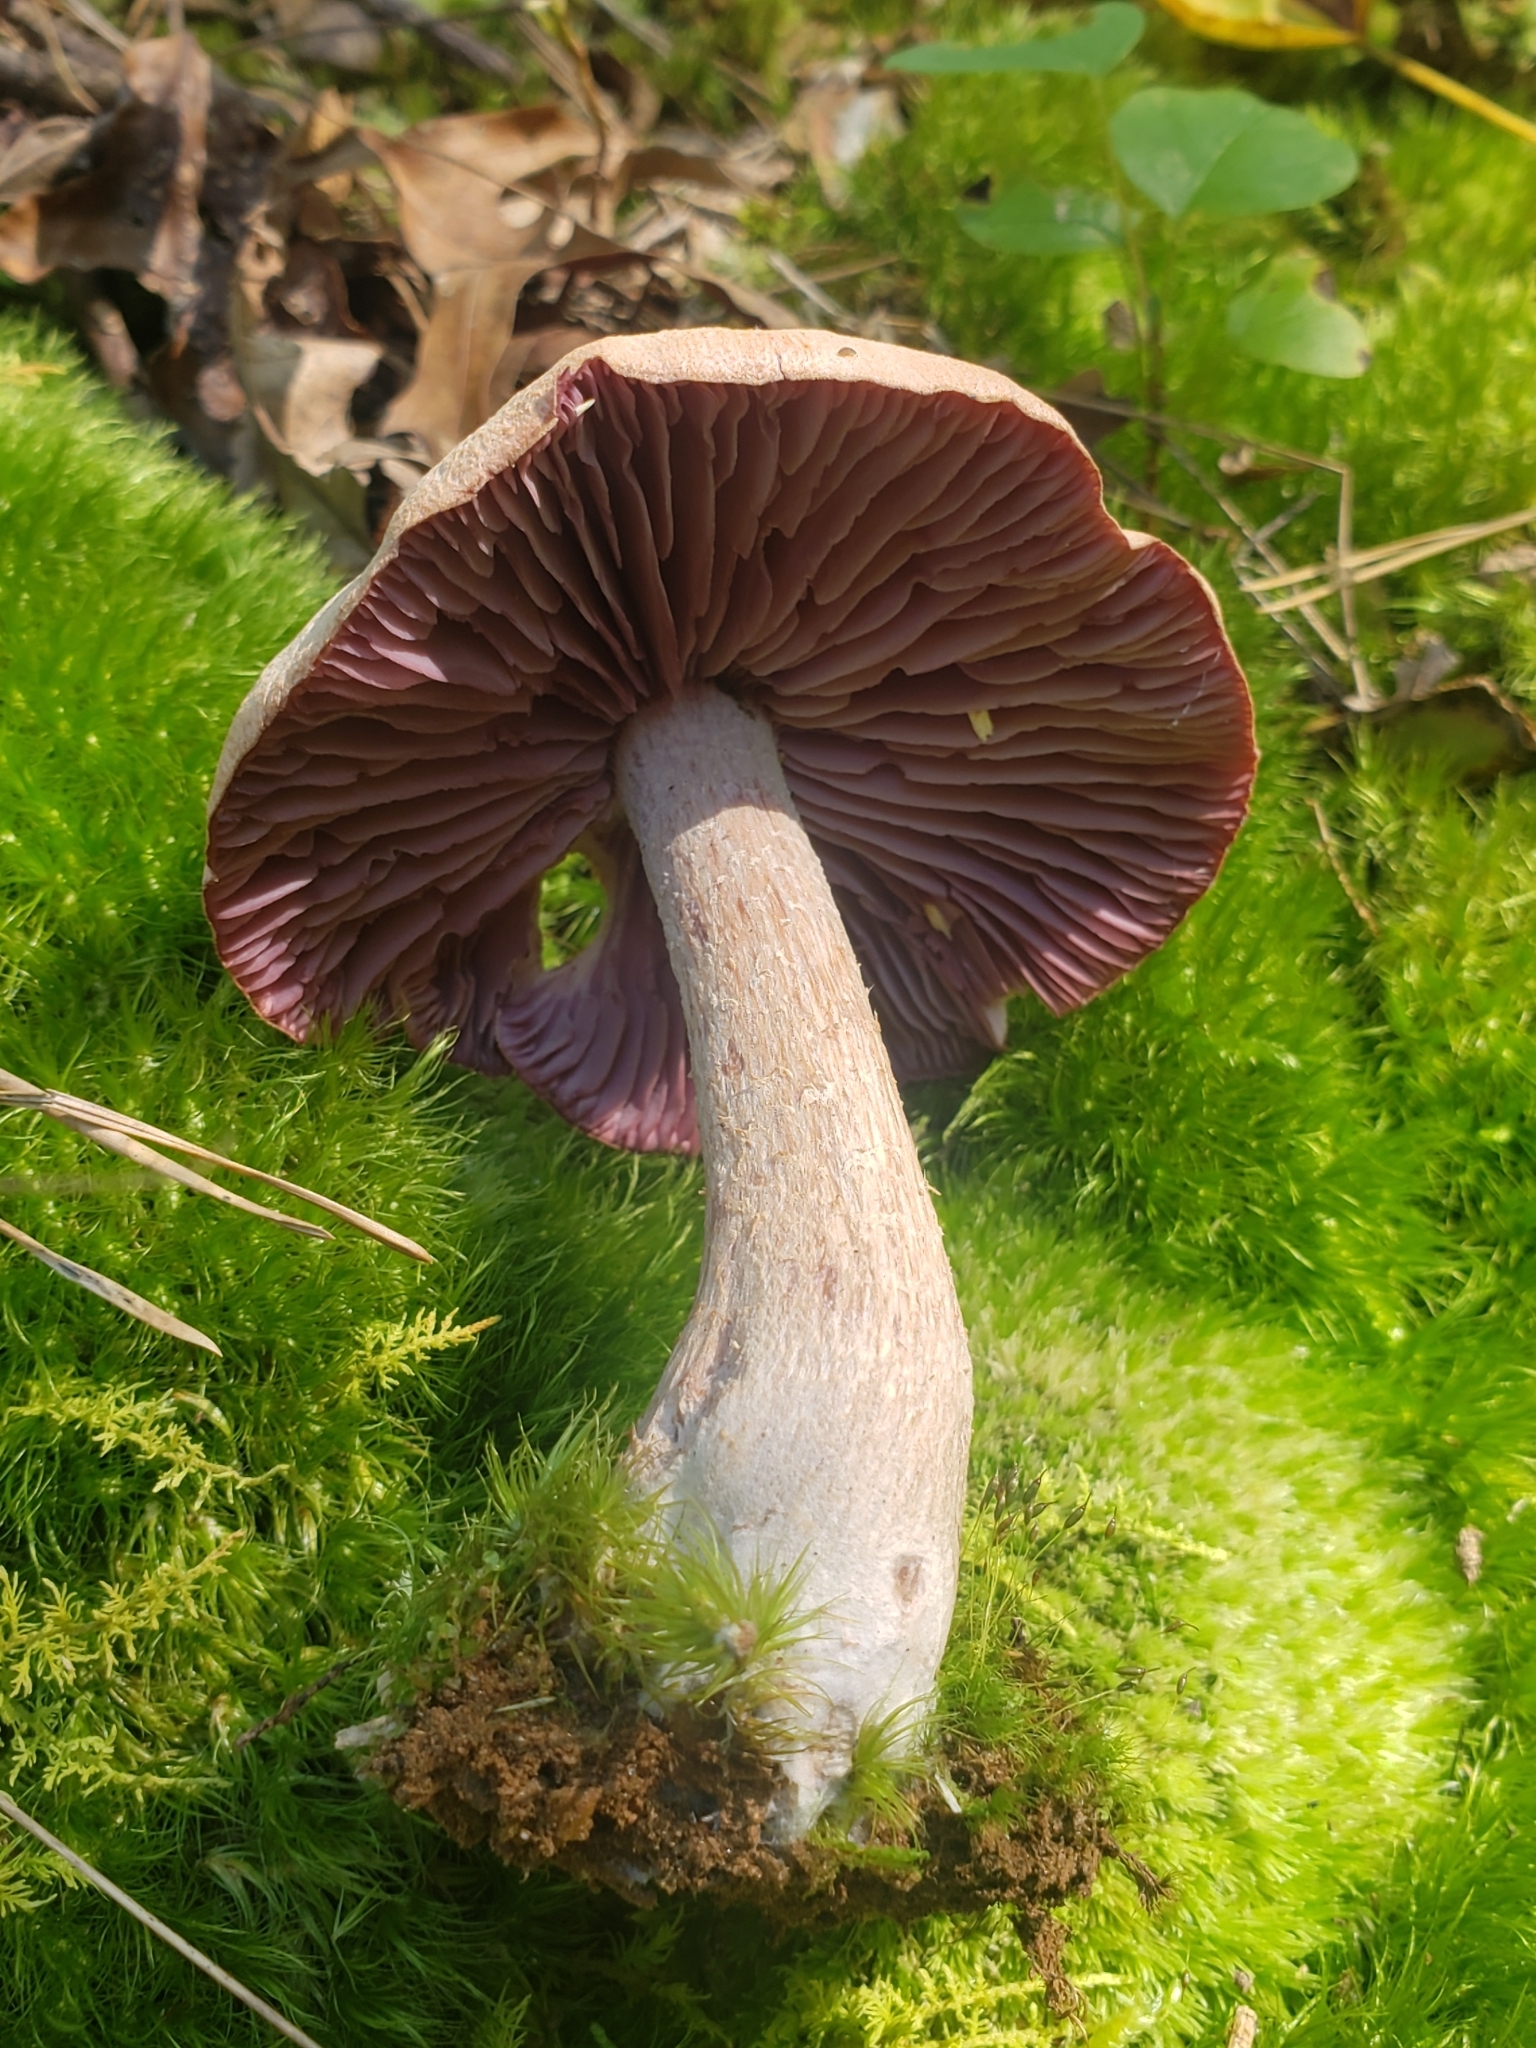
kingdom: Fungi
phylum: Basidiomycota
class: Agaricomycetes
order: Agaricales
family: Hydnangiaceae
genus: Laccaria
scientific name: Laccaria ochropurpurea
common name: Purple laccaria
